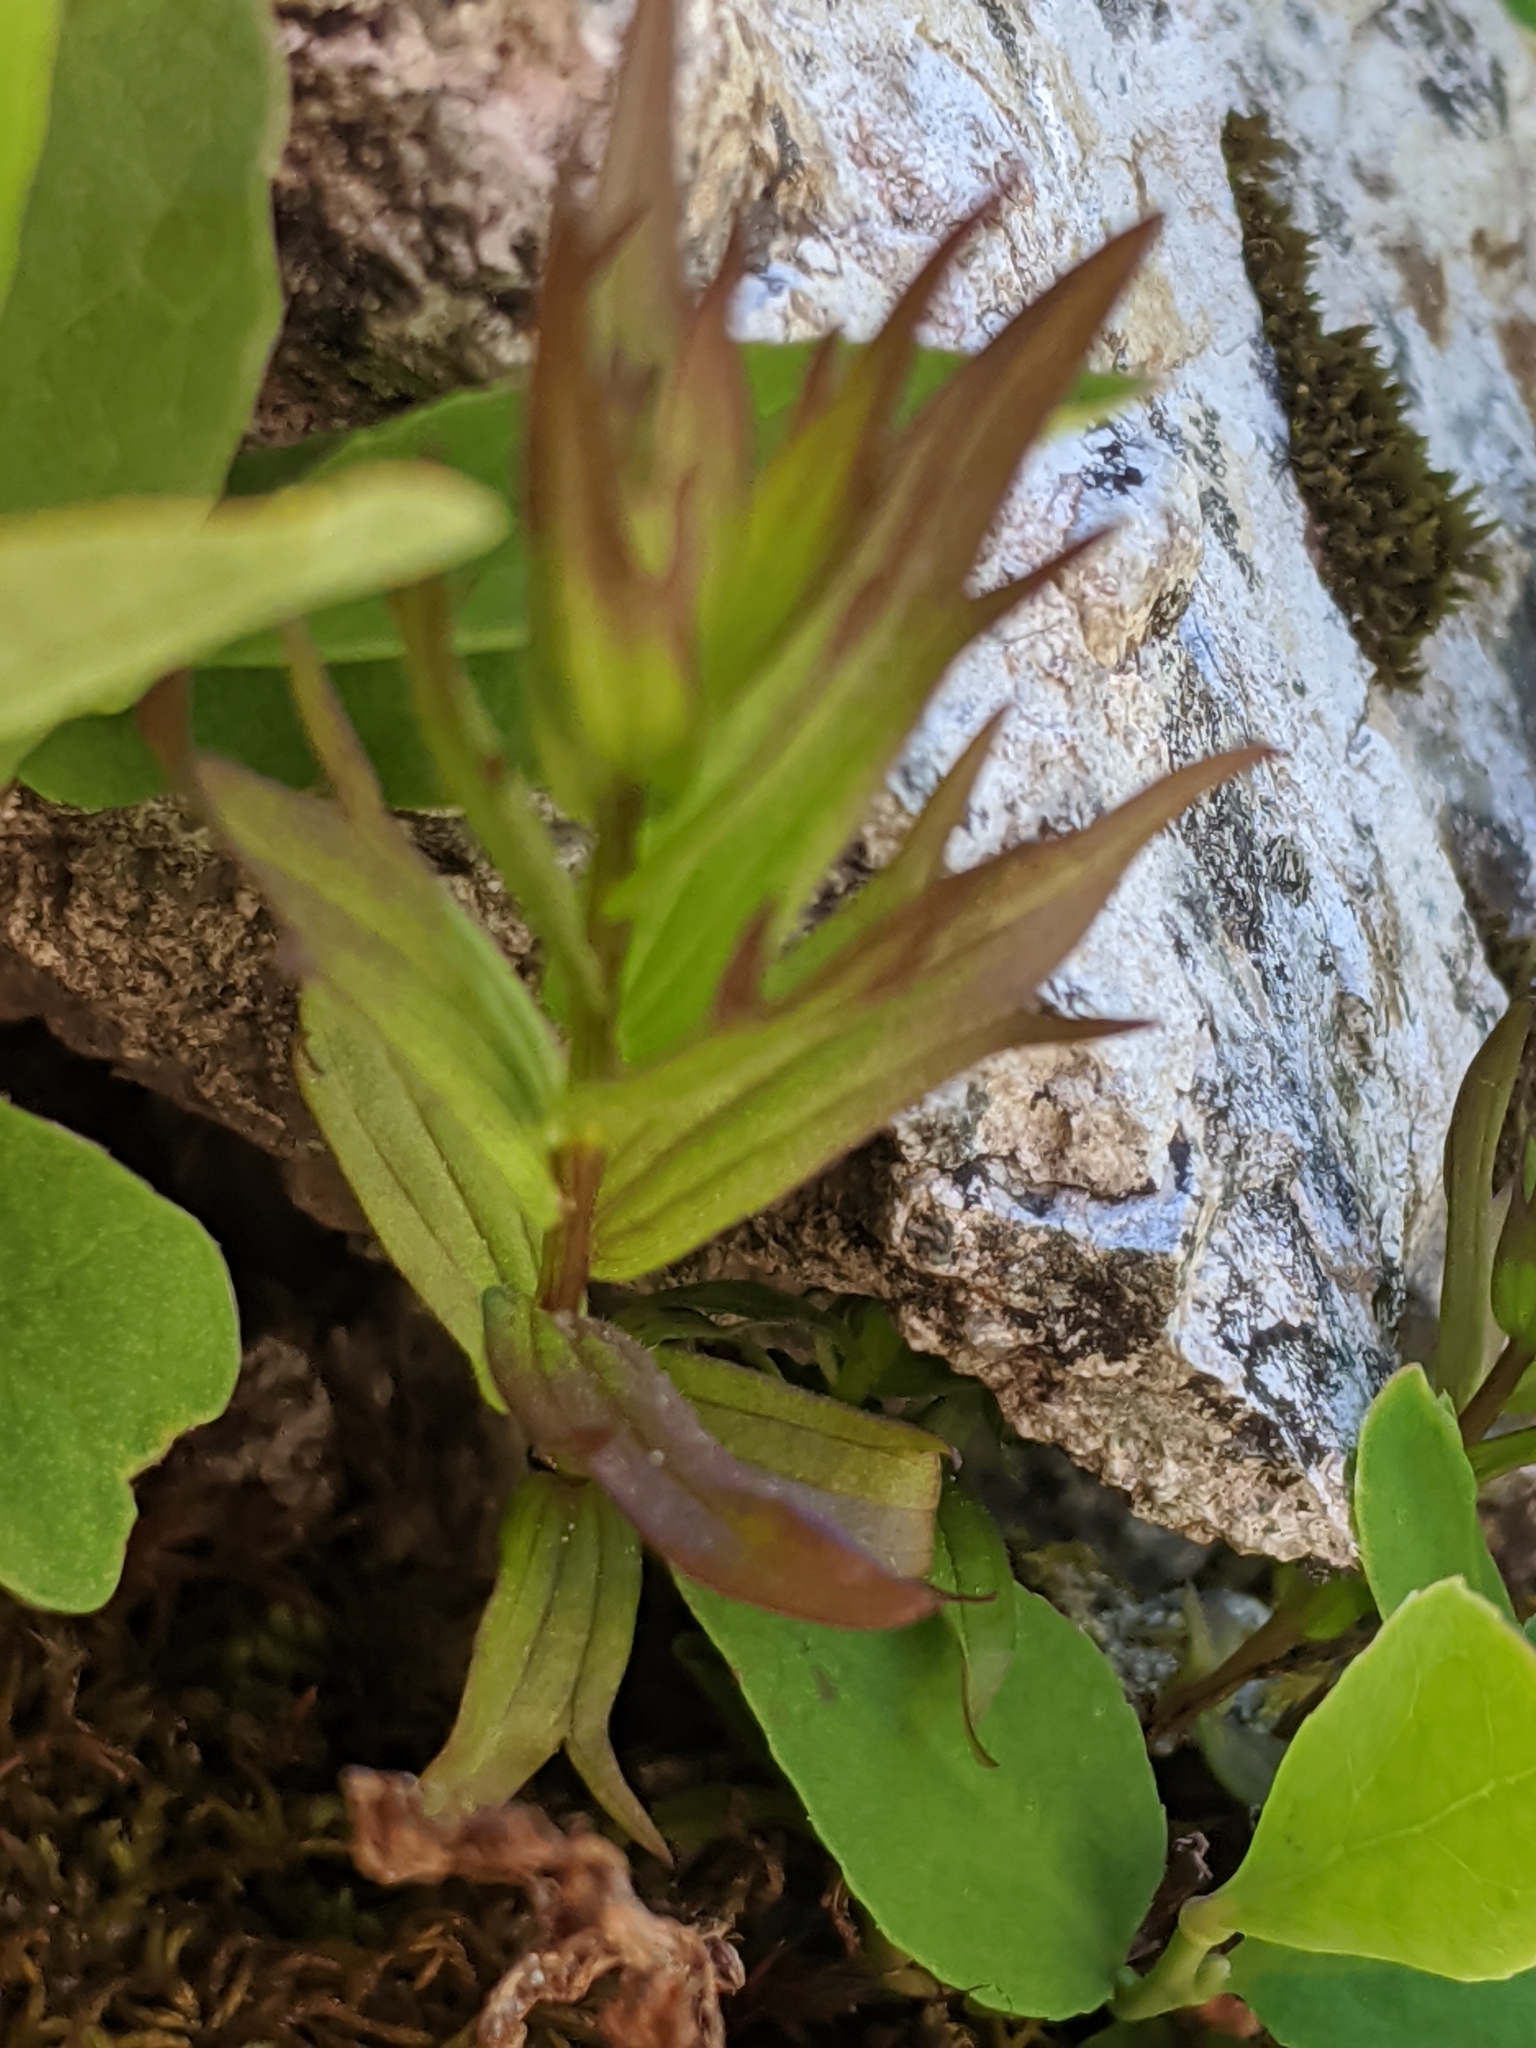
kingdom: Plantae
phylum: Tracheophyta
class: Magnoliopsida
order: Lamiales
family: Orobanchaceae
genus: Castilleja
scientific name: Castilleja parviflora
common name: Mountain paintbrush
